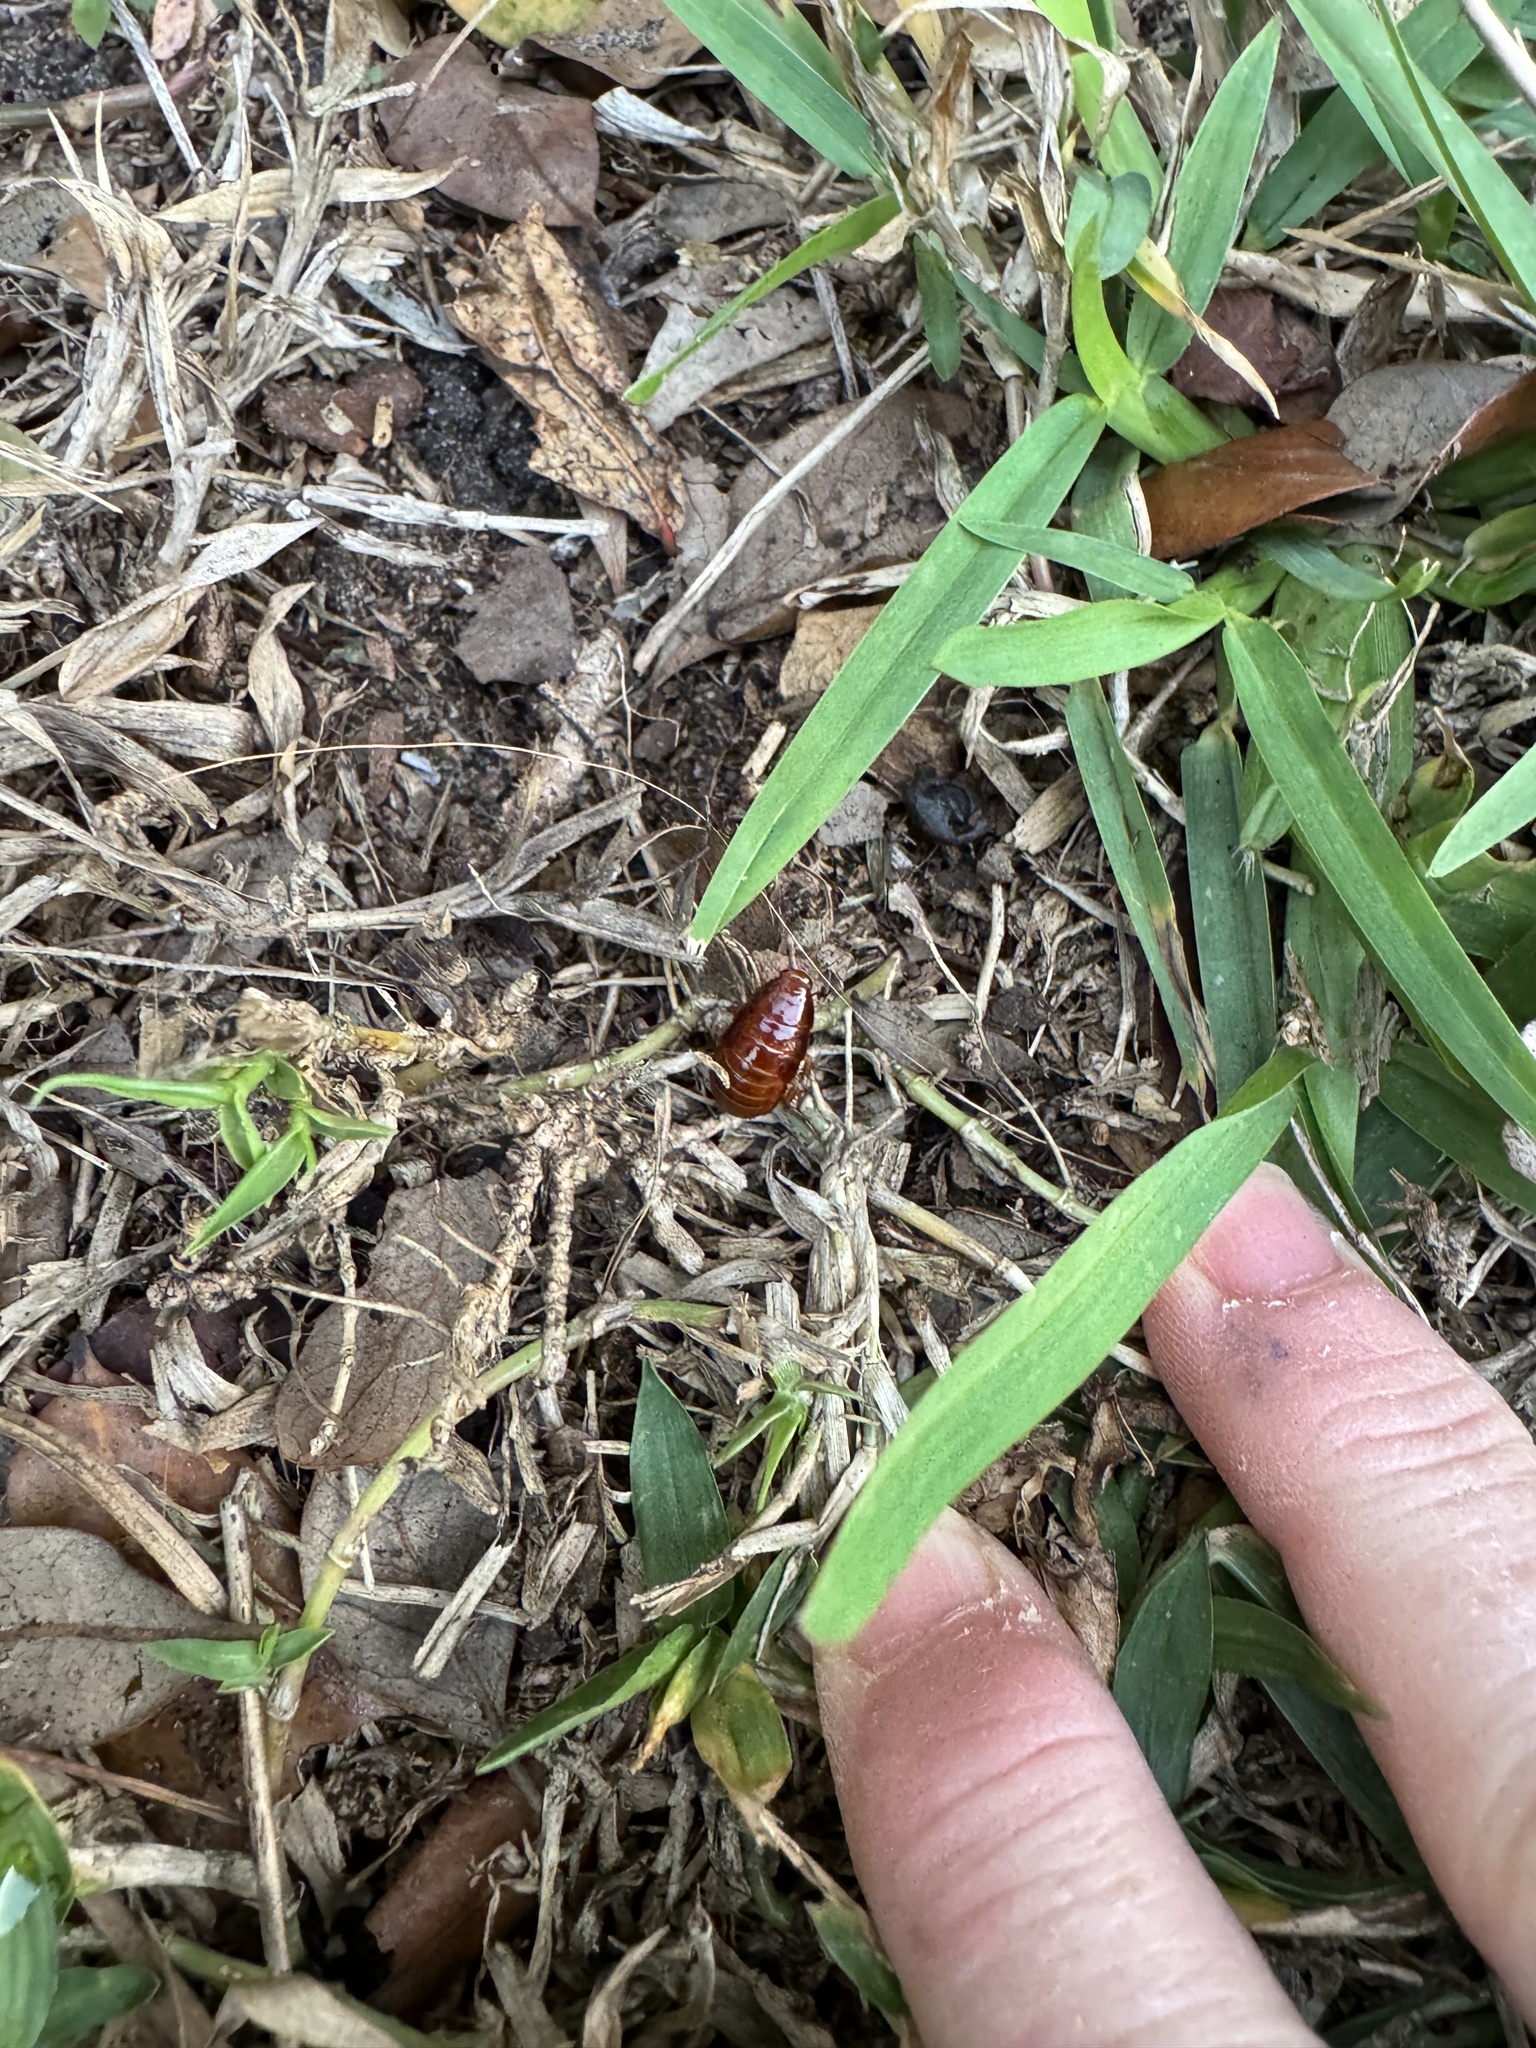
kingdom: Animalia
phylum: Arthropoda
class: Insecta
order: Blattodea
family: Blaberidae
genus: Pycnoscelus
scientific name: Pycnoscelus surinamensis
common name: Surinam cockroach
